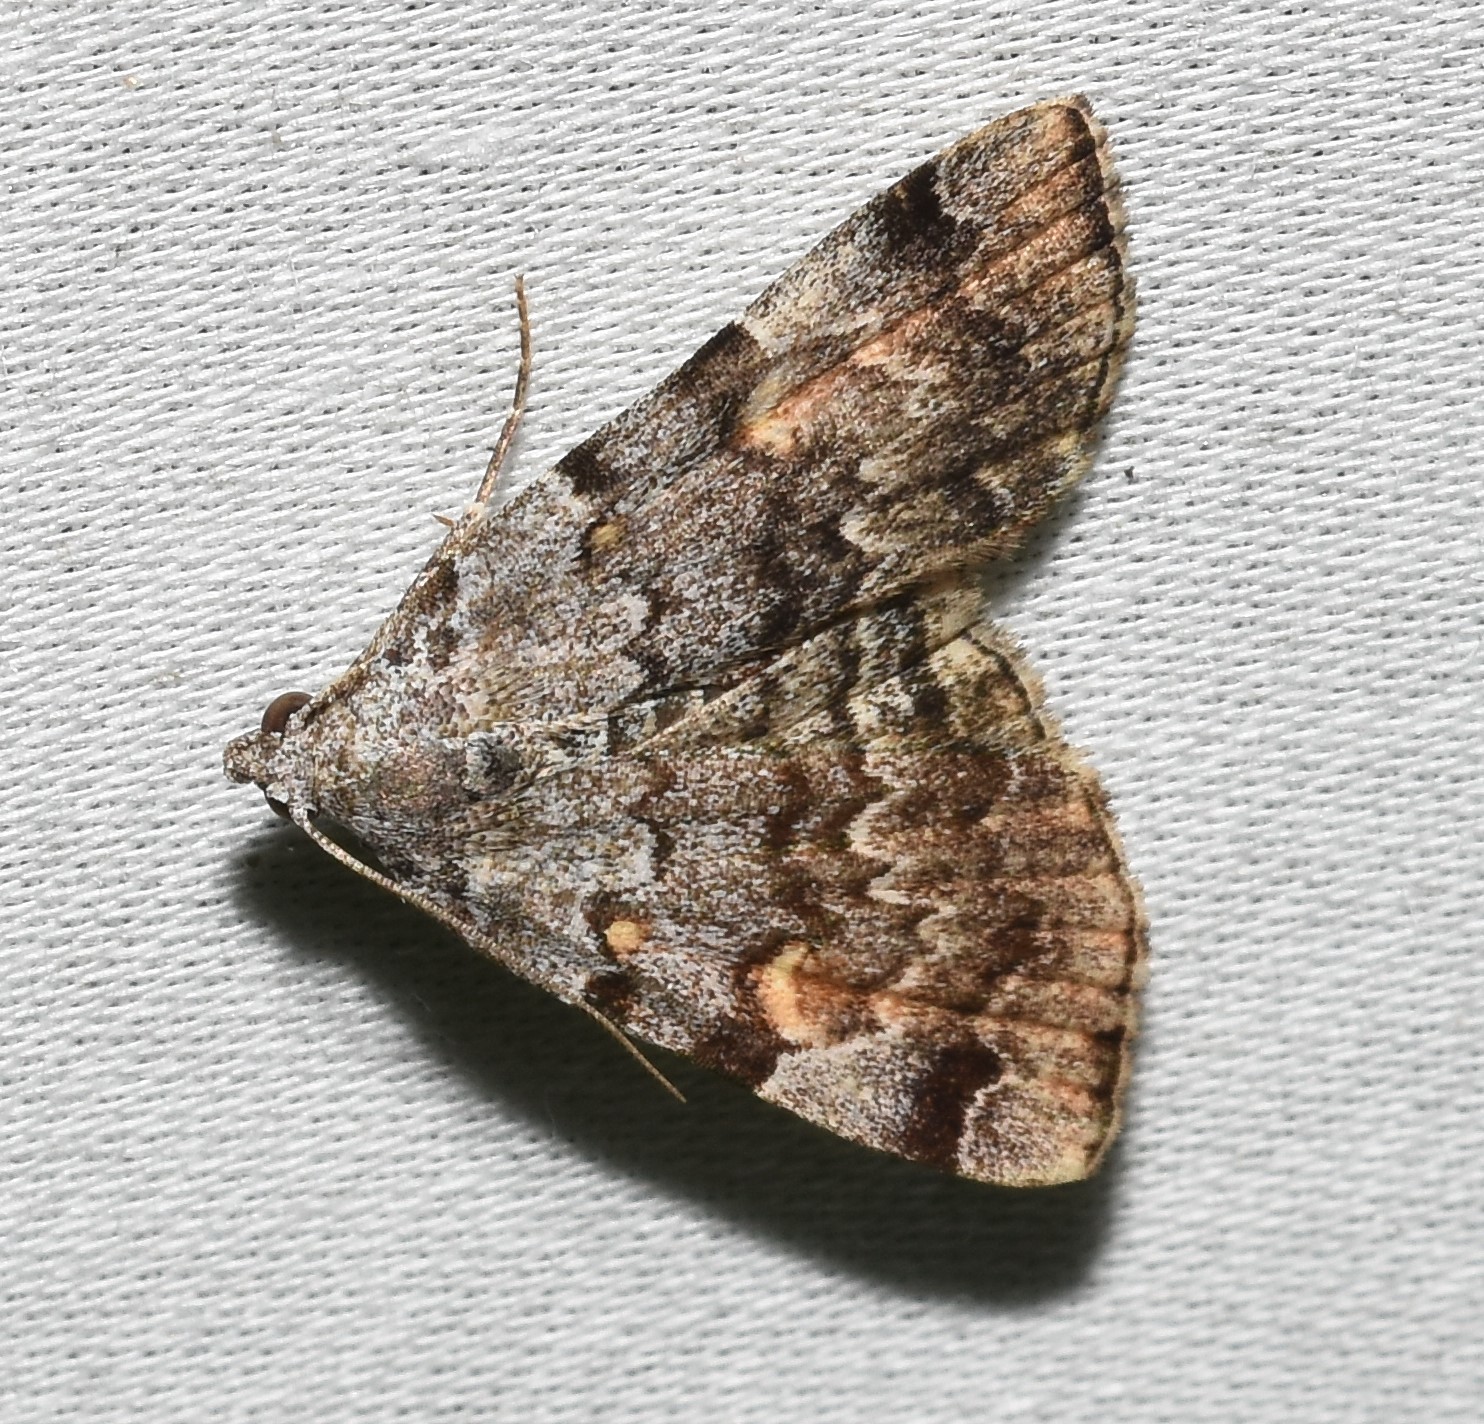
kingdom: Animalia
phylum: Arthropoda
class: Insecta
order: Lepidoptera
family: Erebidae
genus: Idia
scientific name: Idia americalis
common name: American idia moth
